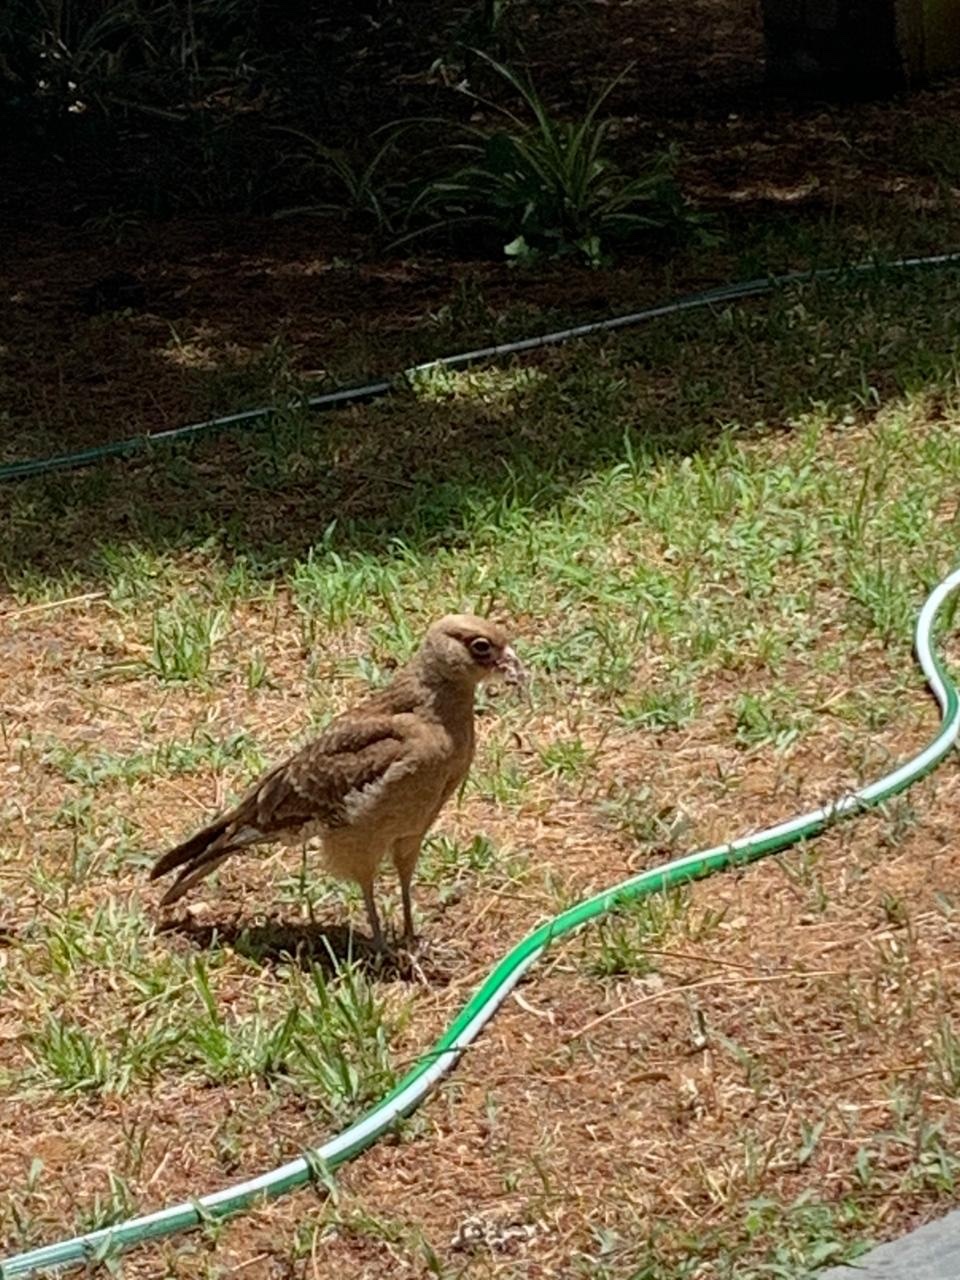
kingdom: Animalia
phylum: Chordata
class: Aves
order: Falconiformes
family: Falconidae
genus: Daptrius
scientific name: Daptrius
